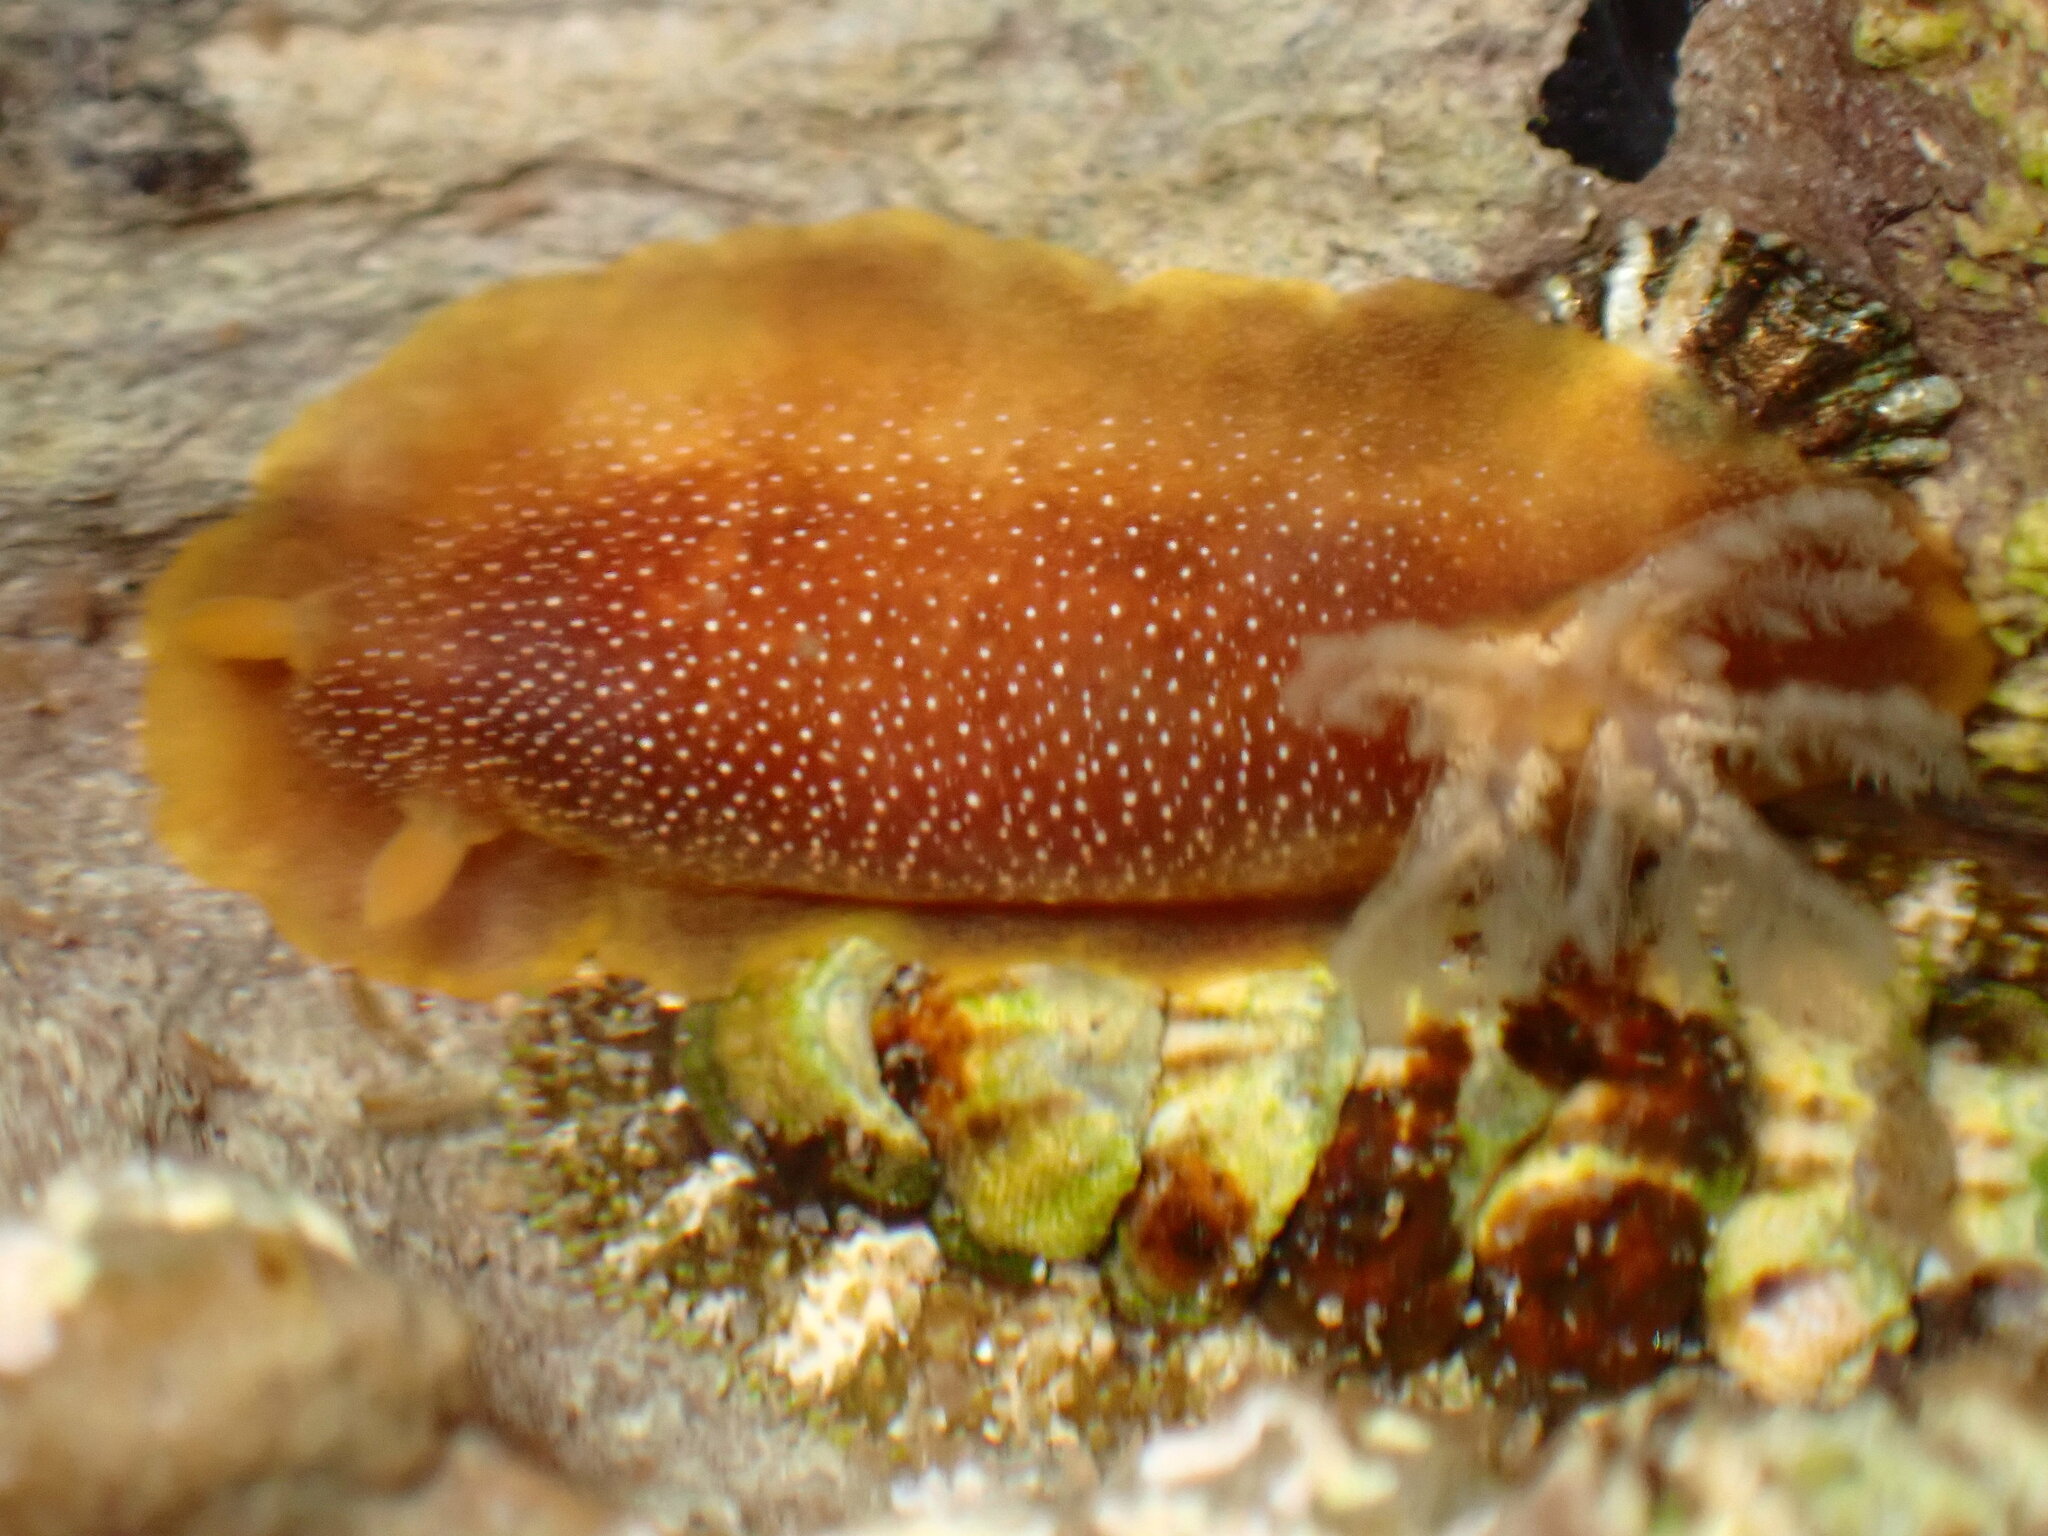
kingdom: Animalia
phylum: Mollusca
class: Gastropoda
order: Nudibranchia
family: Dendrodorididae
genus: Doriopsilla
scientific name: Doriopsilla gemela
